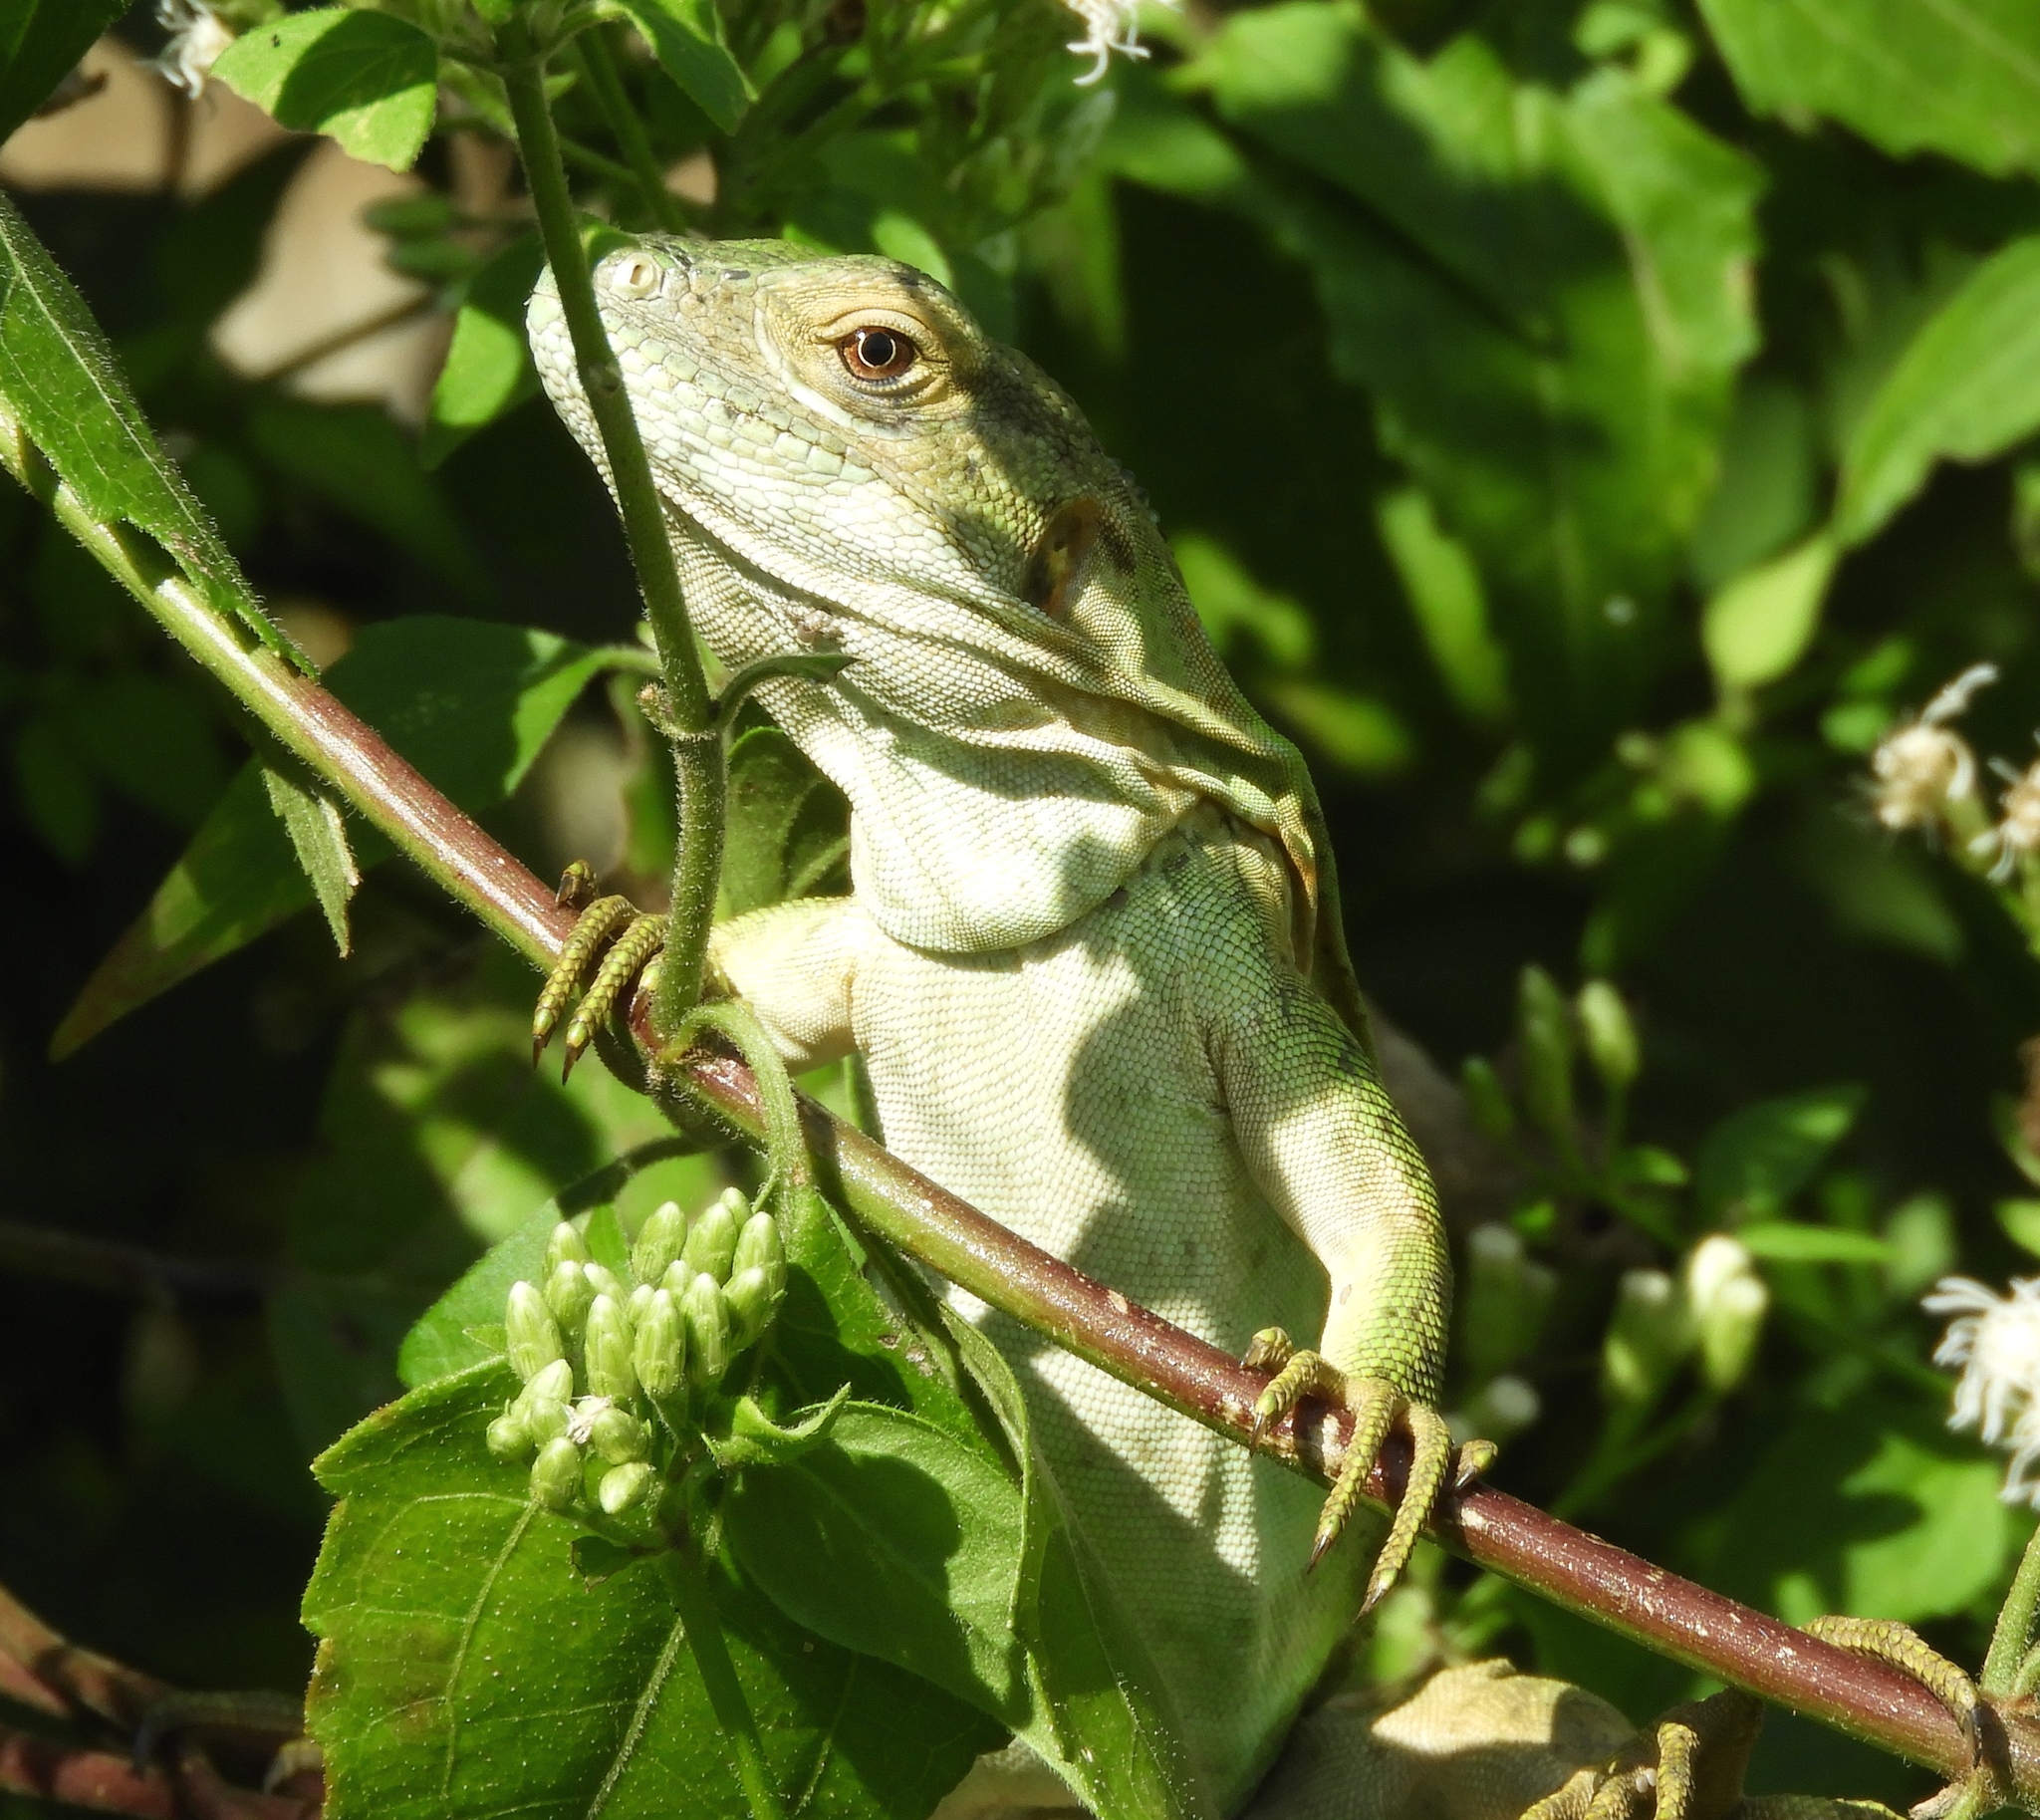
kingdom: Animalia
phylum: Chordata
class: Squamata
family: Iguanidae
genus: Ctenosaura
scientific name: Ctenosaura pectinata
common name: Guerreran spiny-tailed iguana
